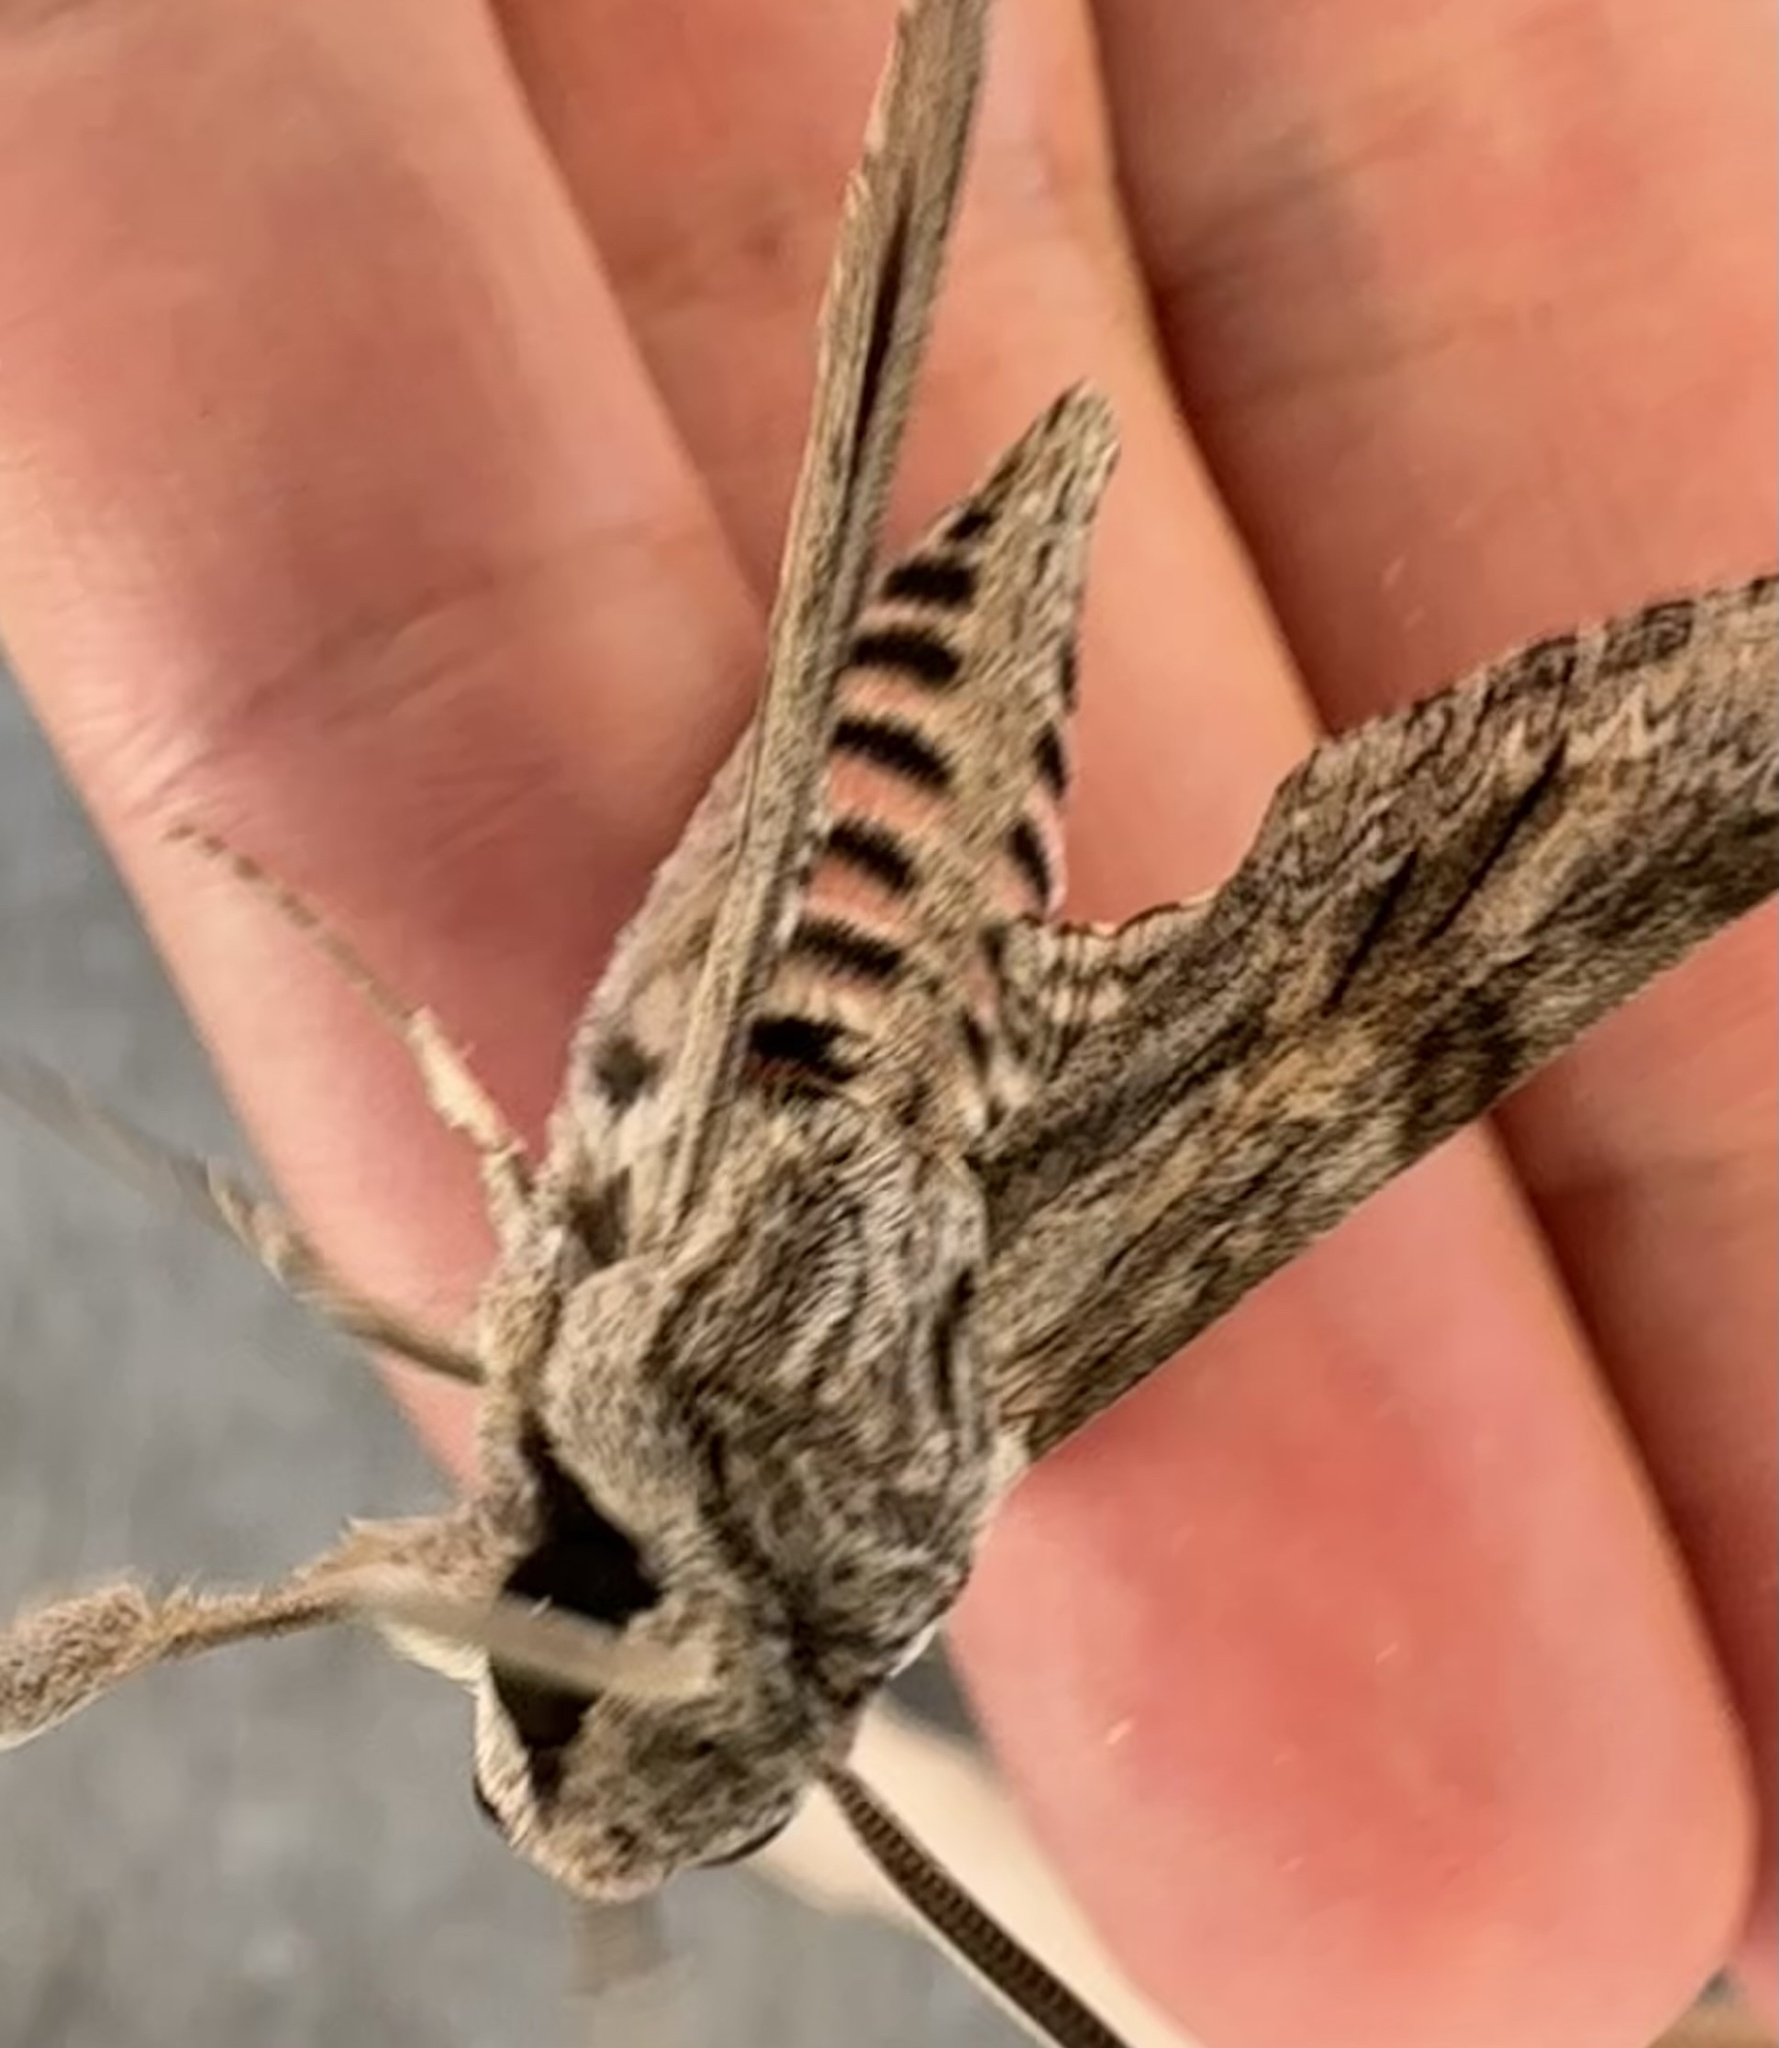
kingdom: Animalia
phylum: Arthropoda
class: Insecta
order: Lepidoptera
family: Sphingidae
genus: Agrius
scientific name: Agrius convolvuli
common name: Convolvulus hawkmoth
